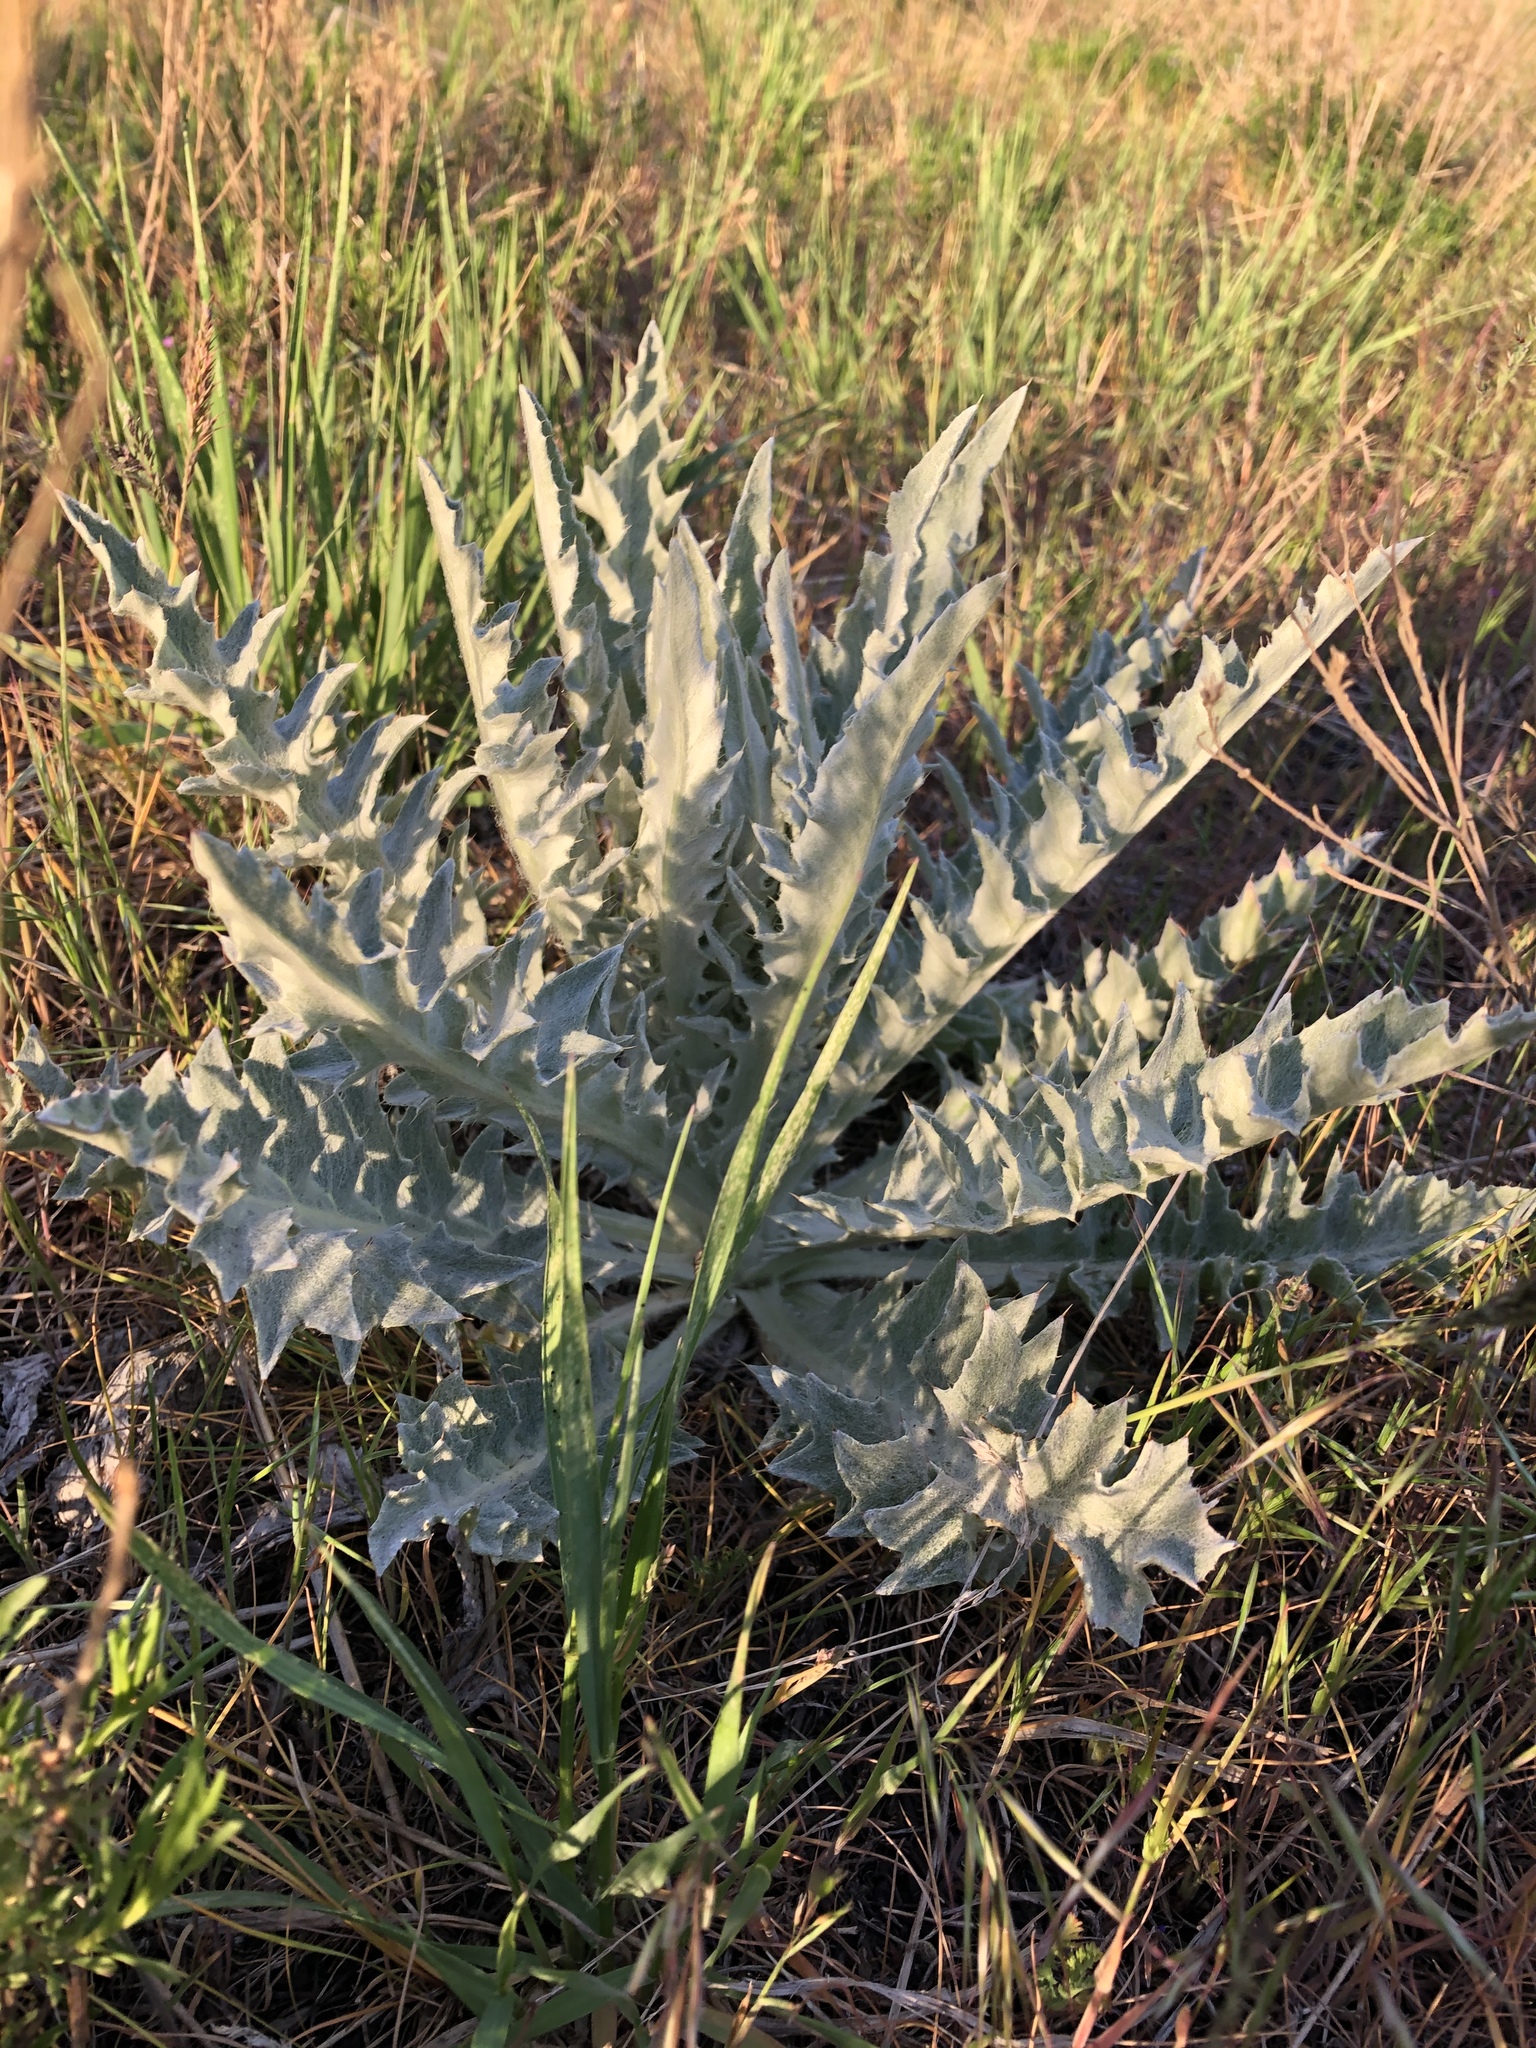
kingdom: Plantae
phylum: Tracheophyta
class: Magnoliopsida
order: Asterales
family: Asteraceae
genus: Onopordum
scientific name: Onopordum acanthium
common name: Scotch thistle
